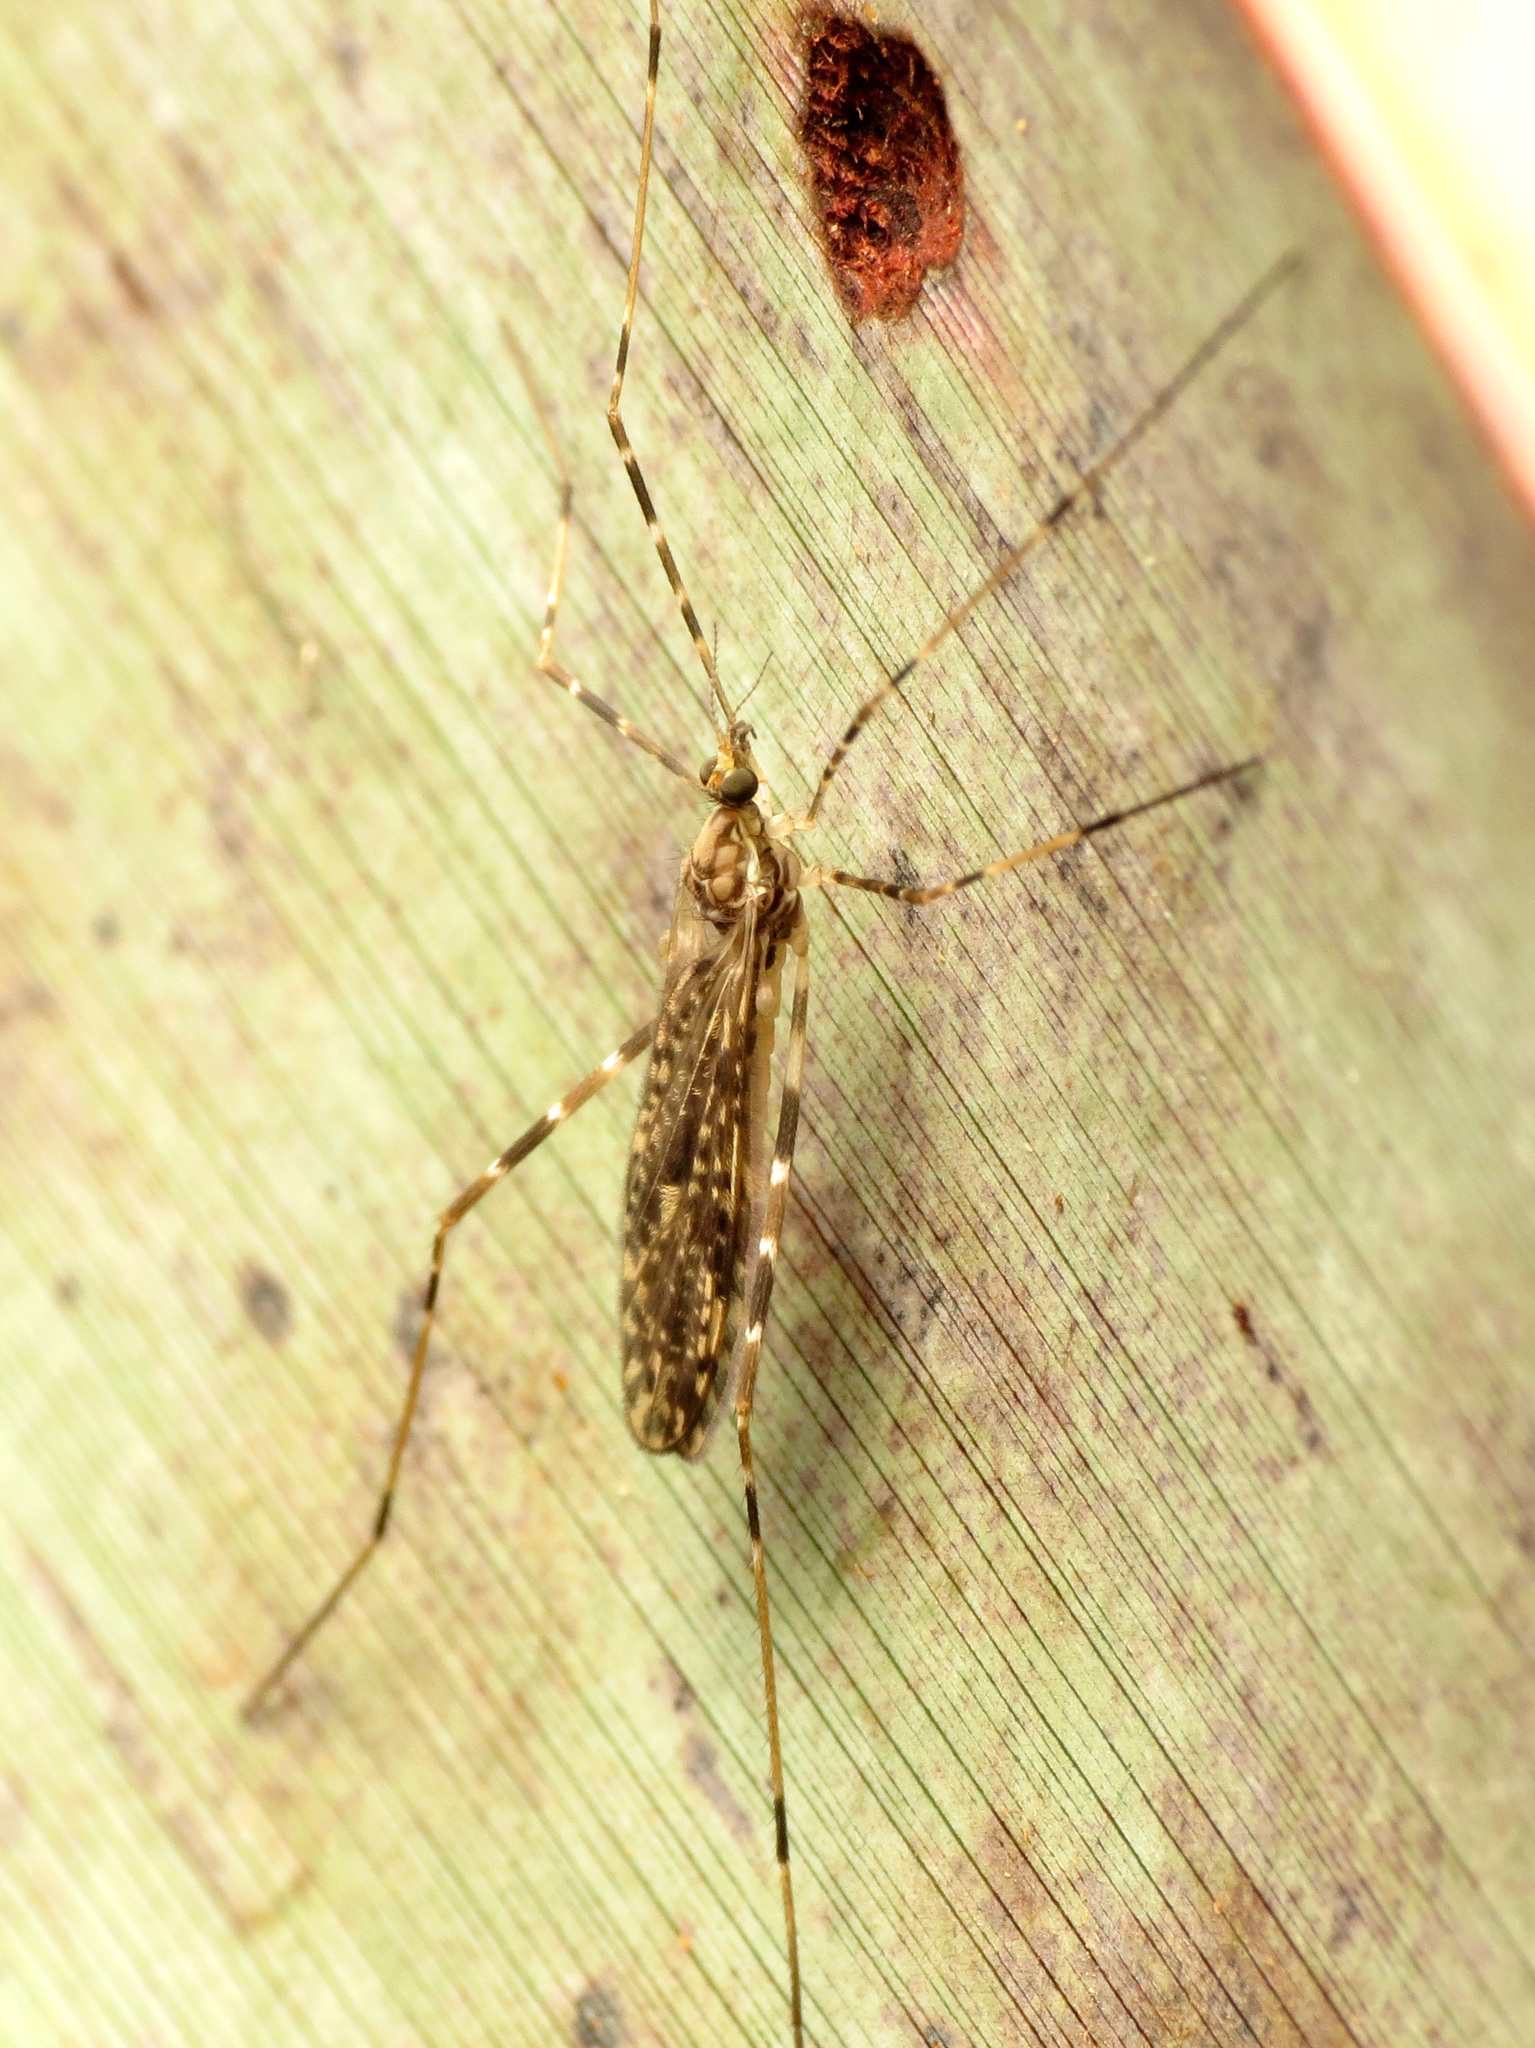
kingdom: Animalia
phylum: Arthropoda
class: Insecta
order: Diptera
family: Limoniidae
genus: Amphineurus
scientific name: Amphineurus hudsoni
